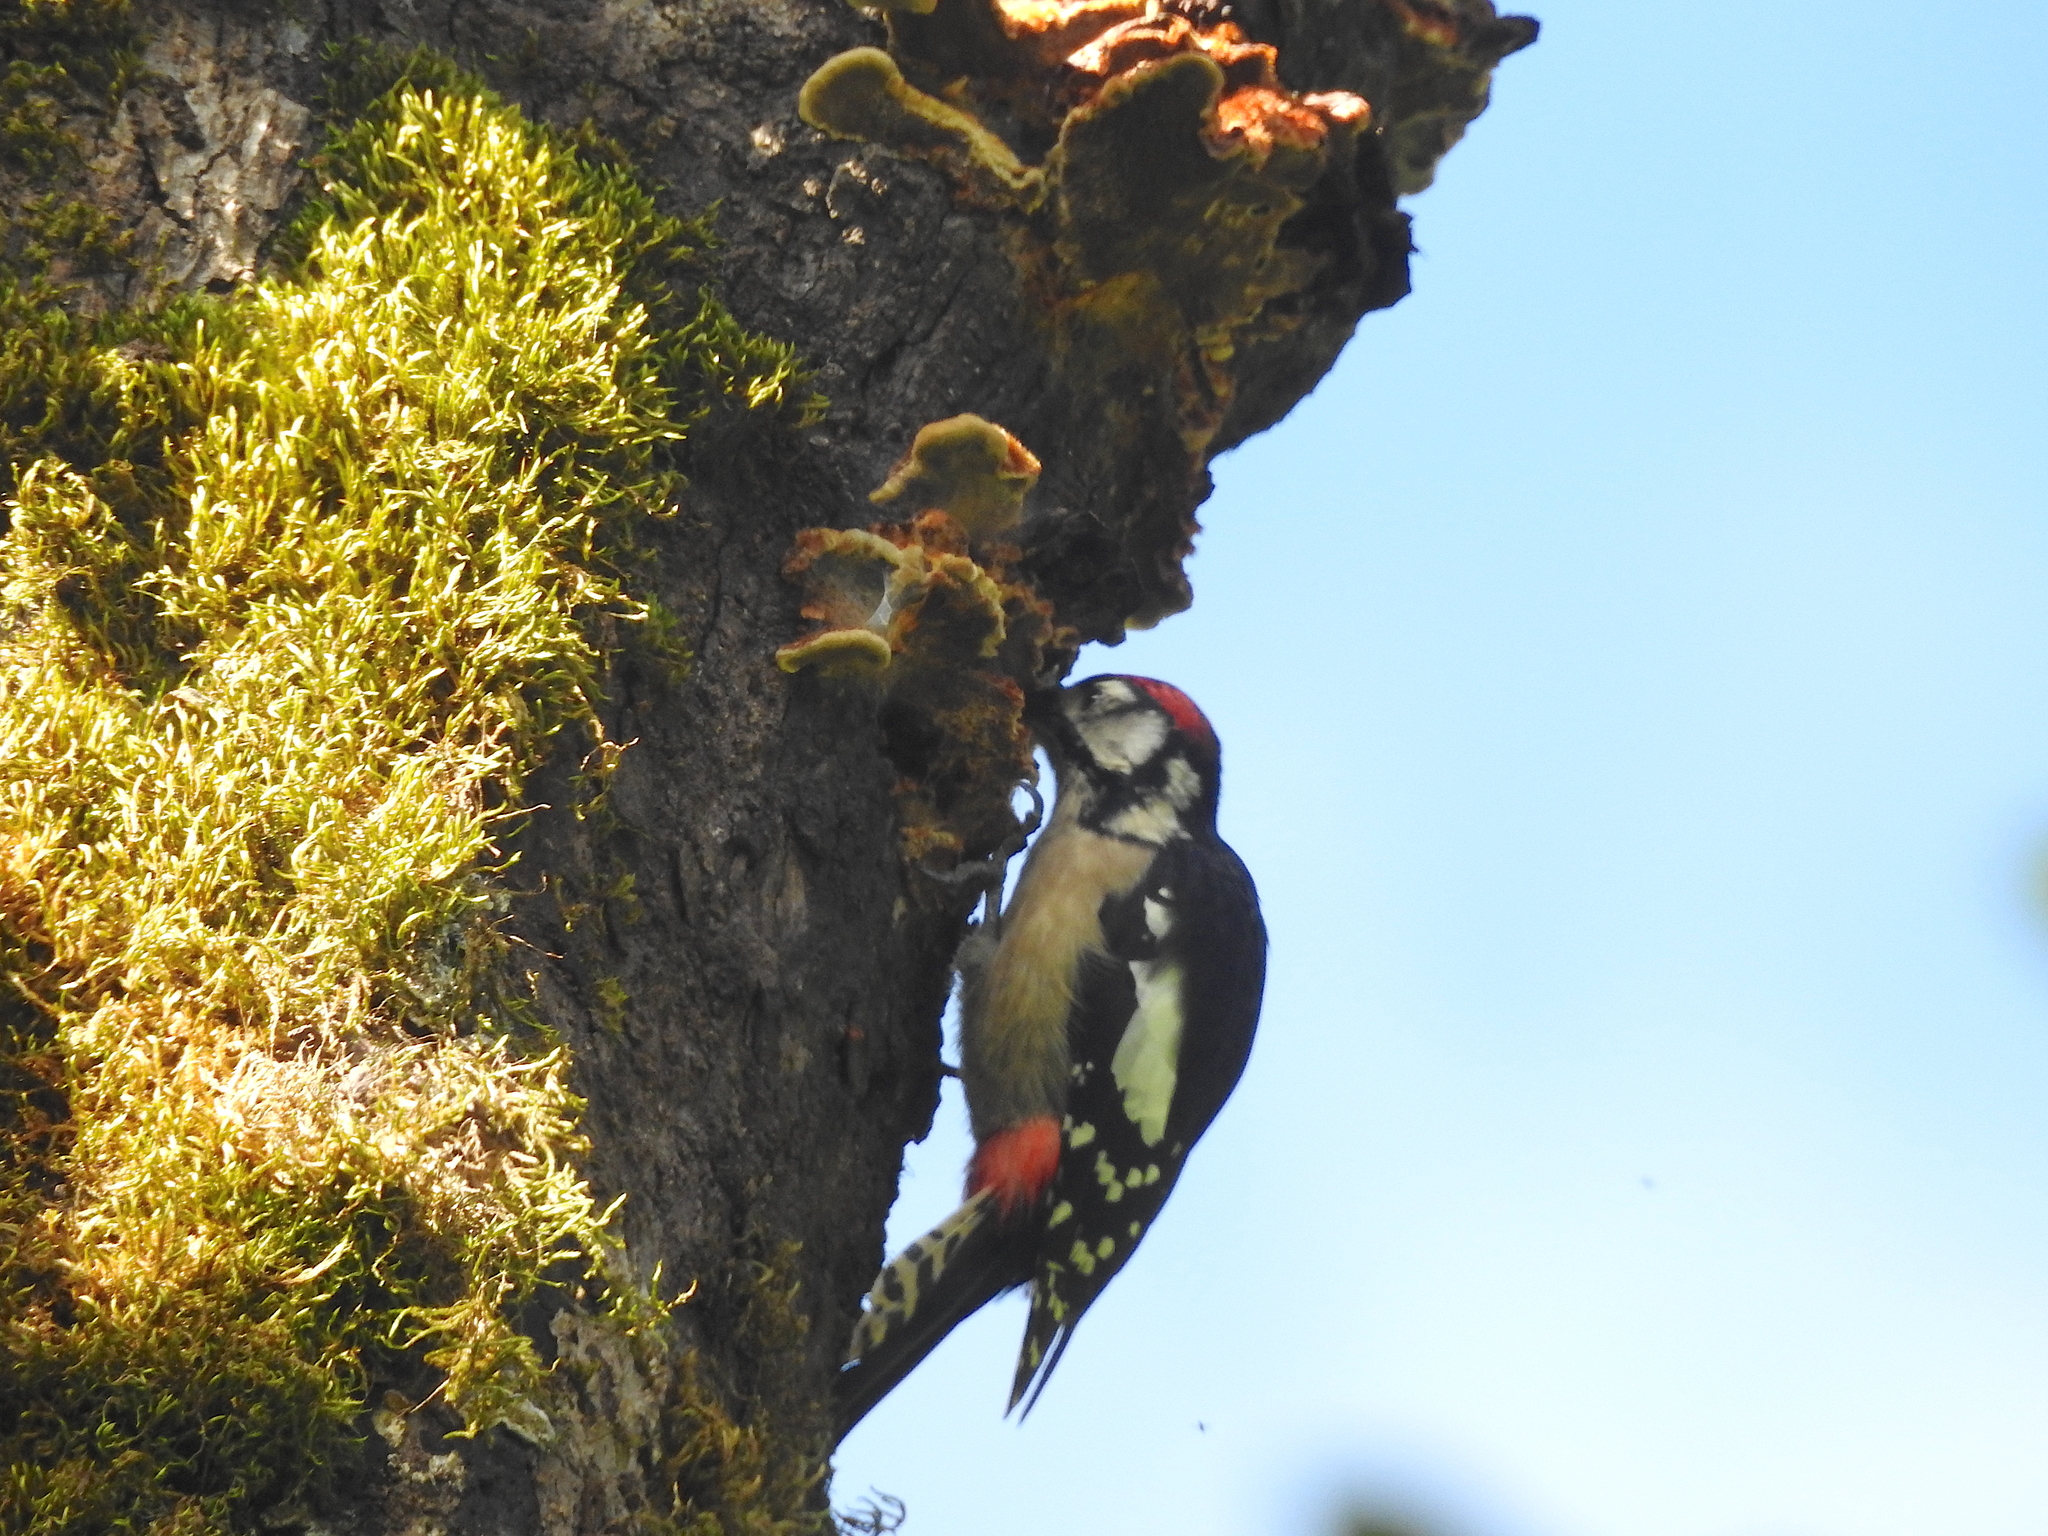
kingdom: Animalia
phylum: Chordata
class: Aves
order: Piciformes
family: Picidae
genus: Dendrocopos
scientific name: Dendrocopos himalayensis
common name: Himalayan woodpecker
